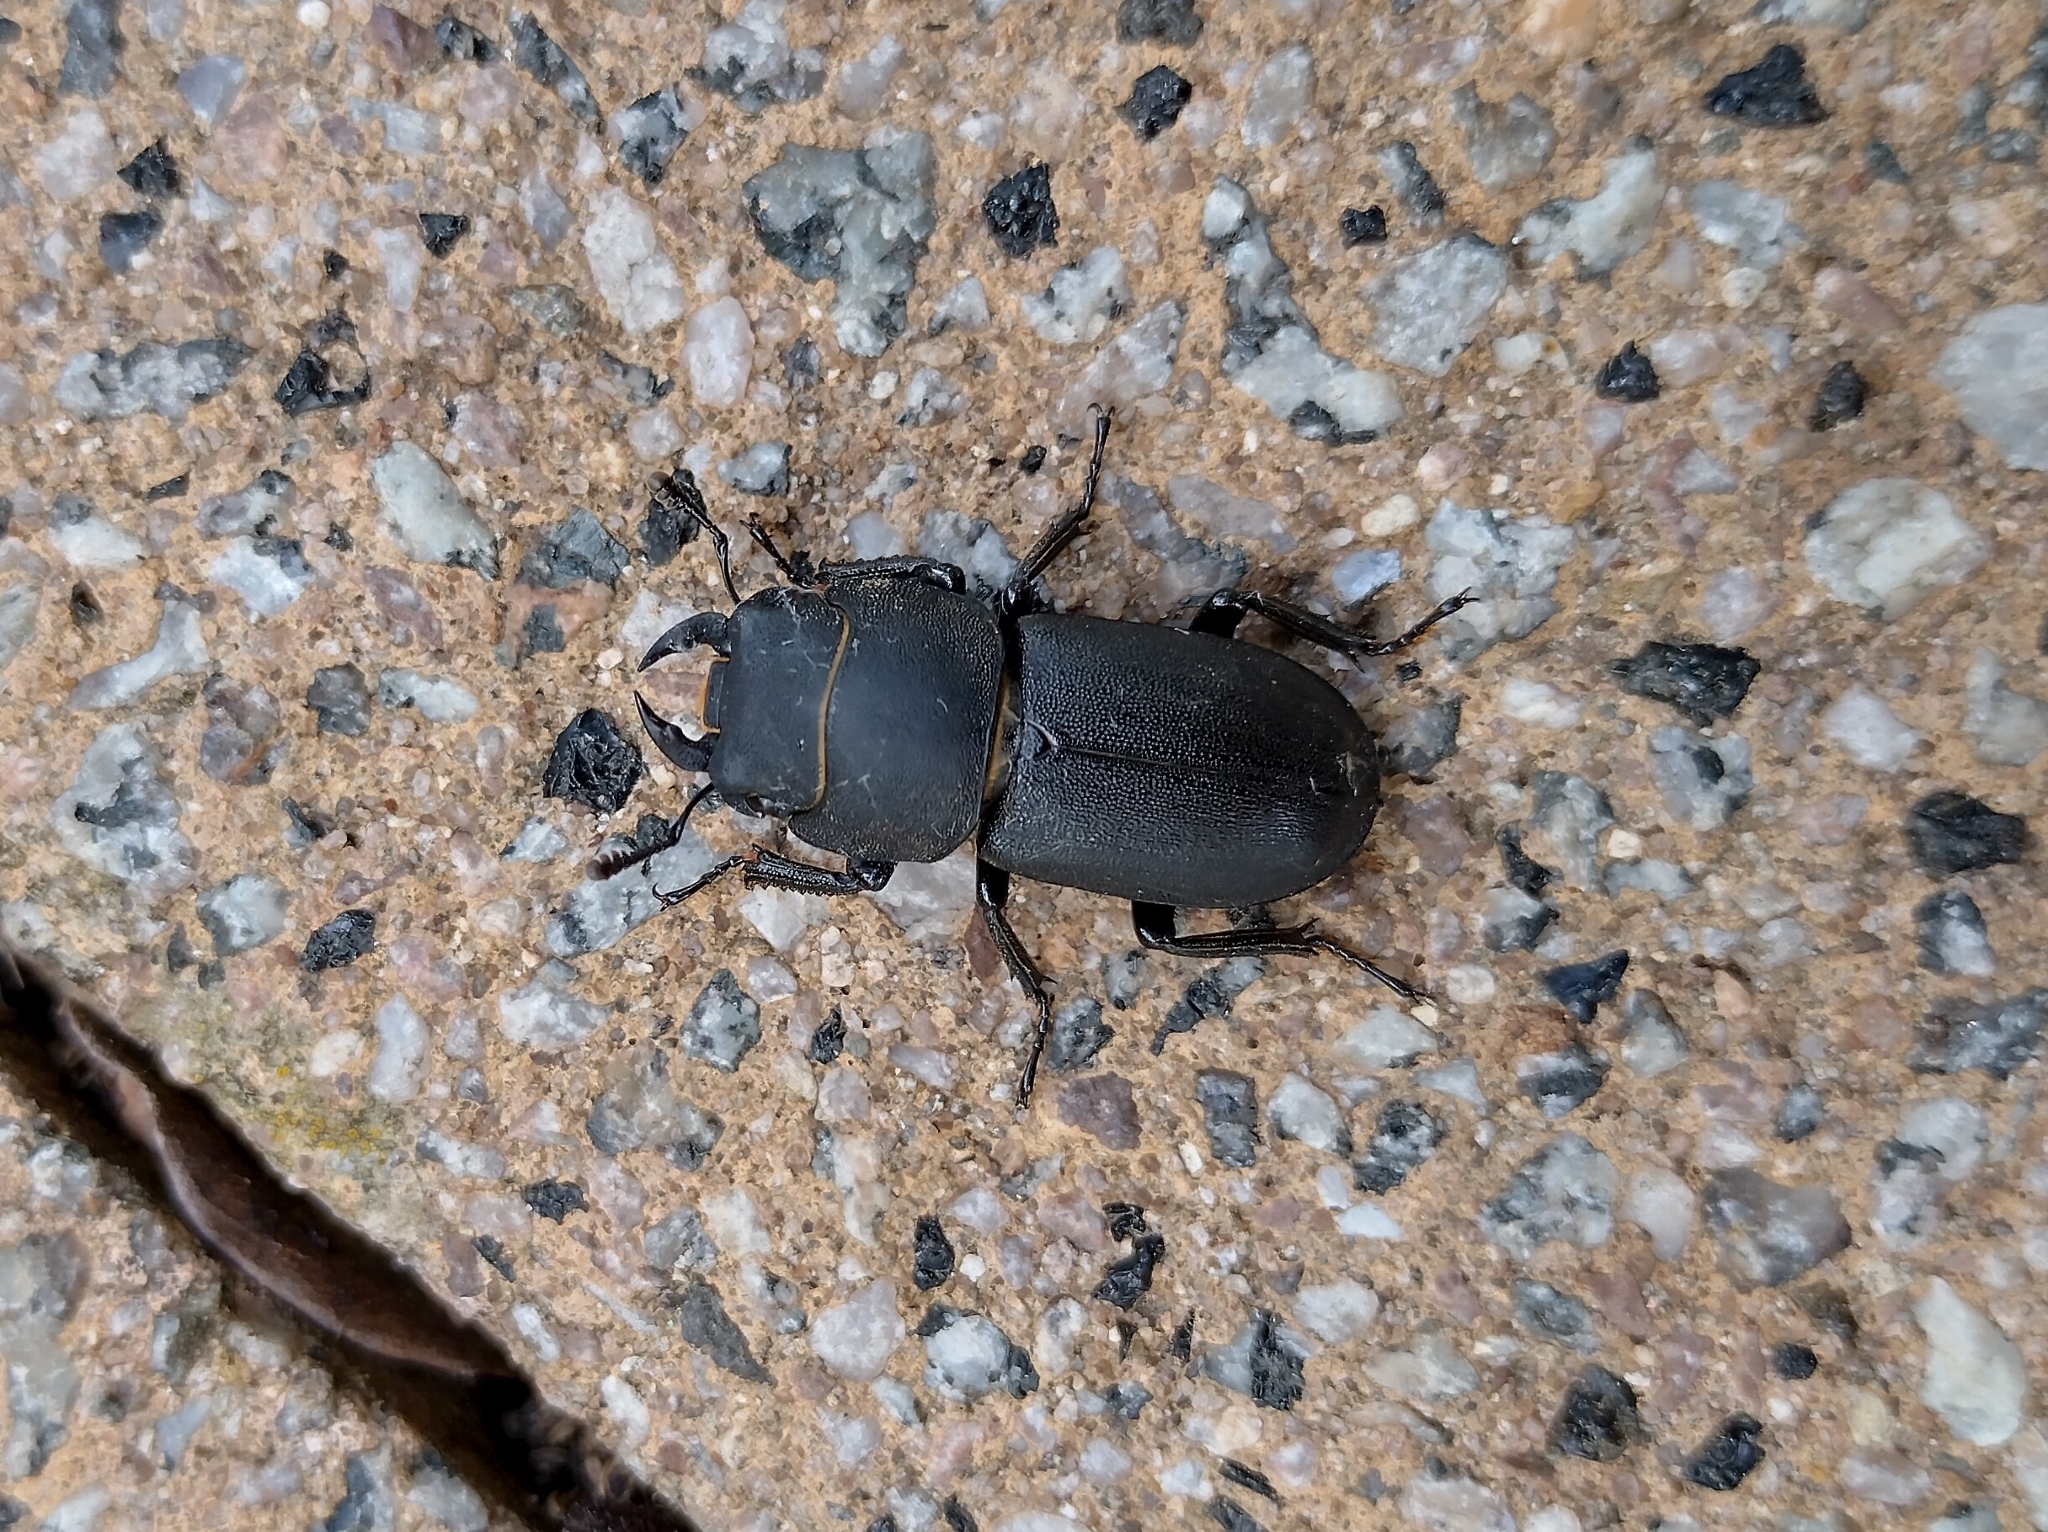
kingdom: Animalia
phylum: Arthropoda
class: Insecta
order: Coleoptera
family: Lucanidae
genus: Dorcus
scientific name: Dorcus parallelipipedus
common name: Lesser stag beetle
